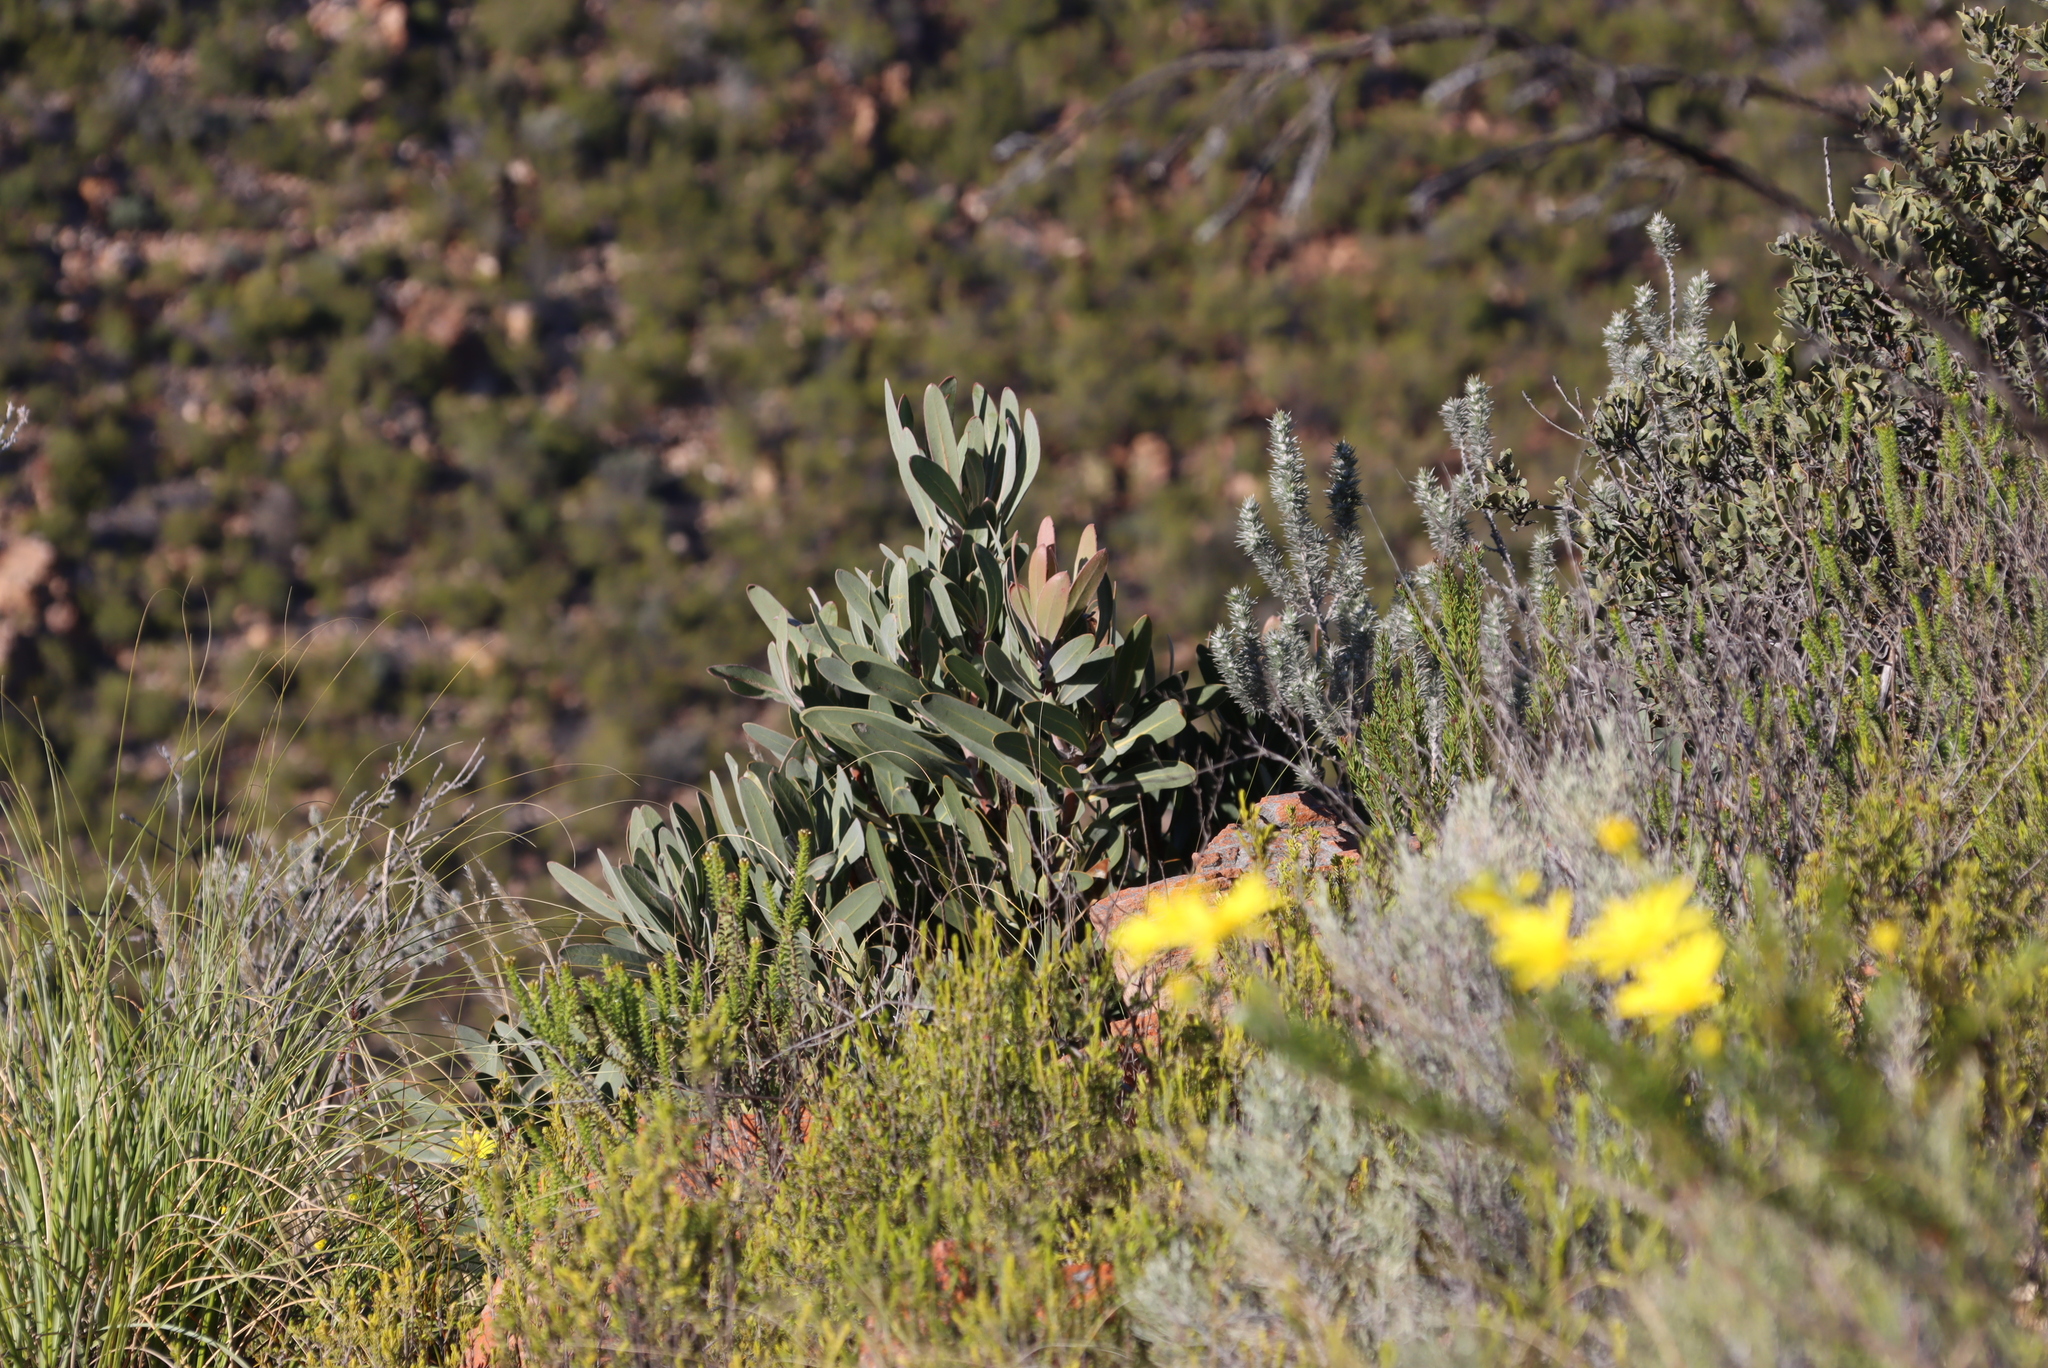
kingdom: Plantae
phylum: Tracheophyta
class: Magnoliopsida
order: Proteales
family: Proteaceae
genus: Protea
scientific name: Protea lorifolia
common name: Strap-leaved protea
